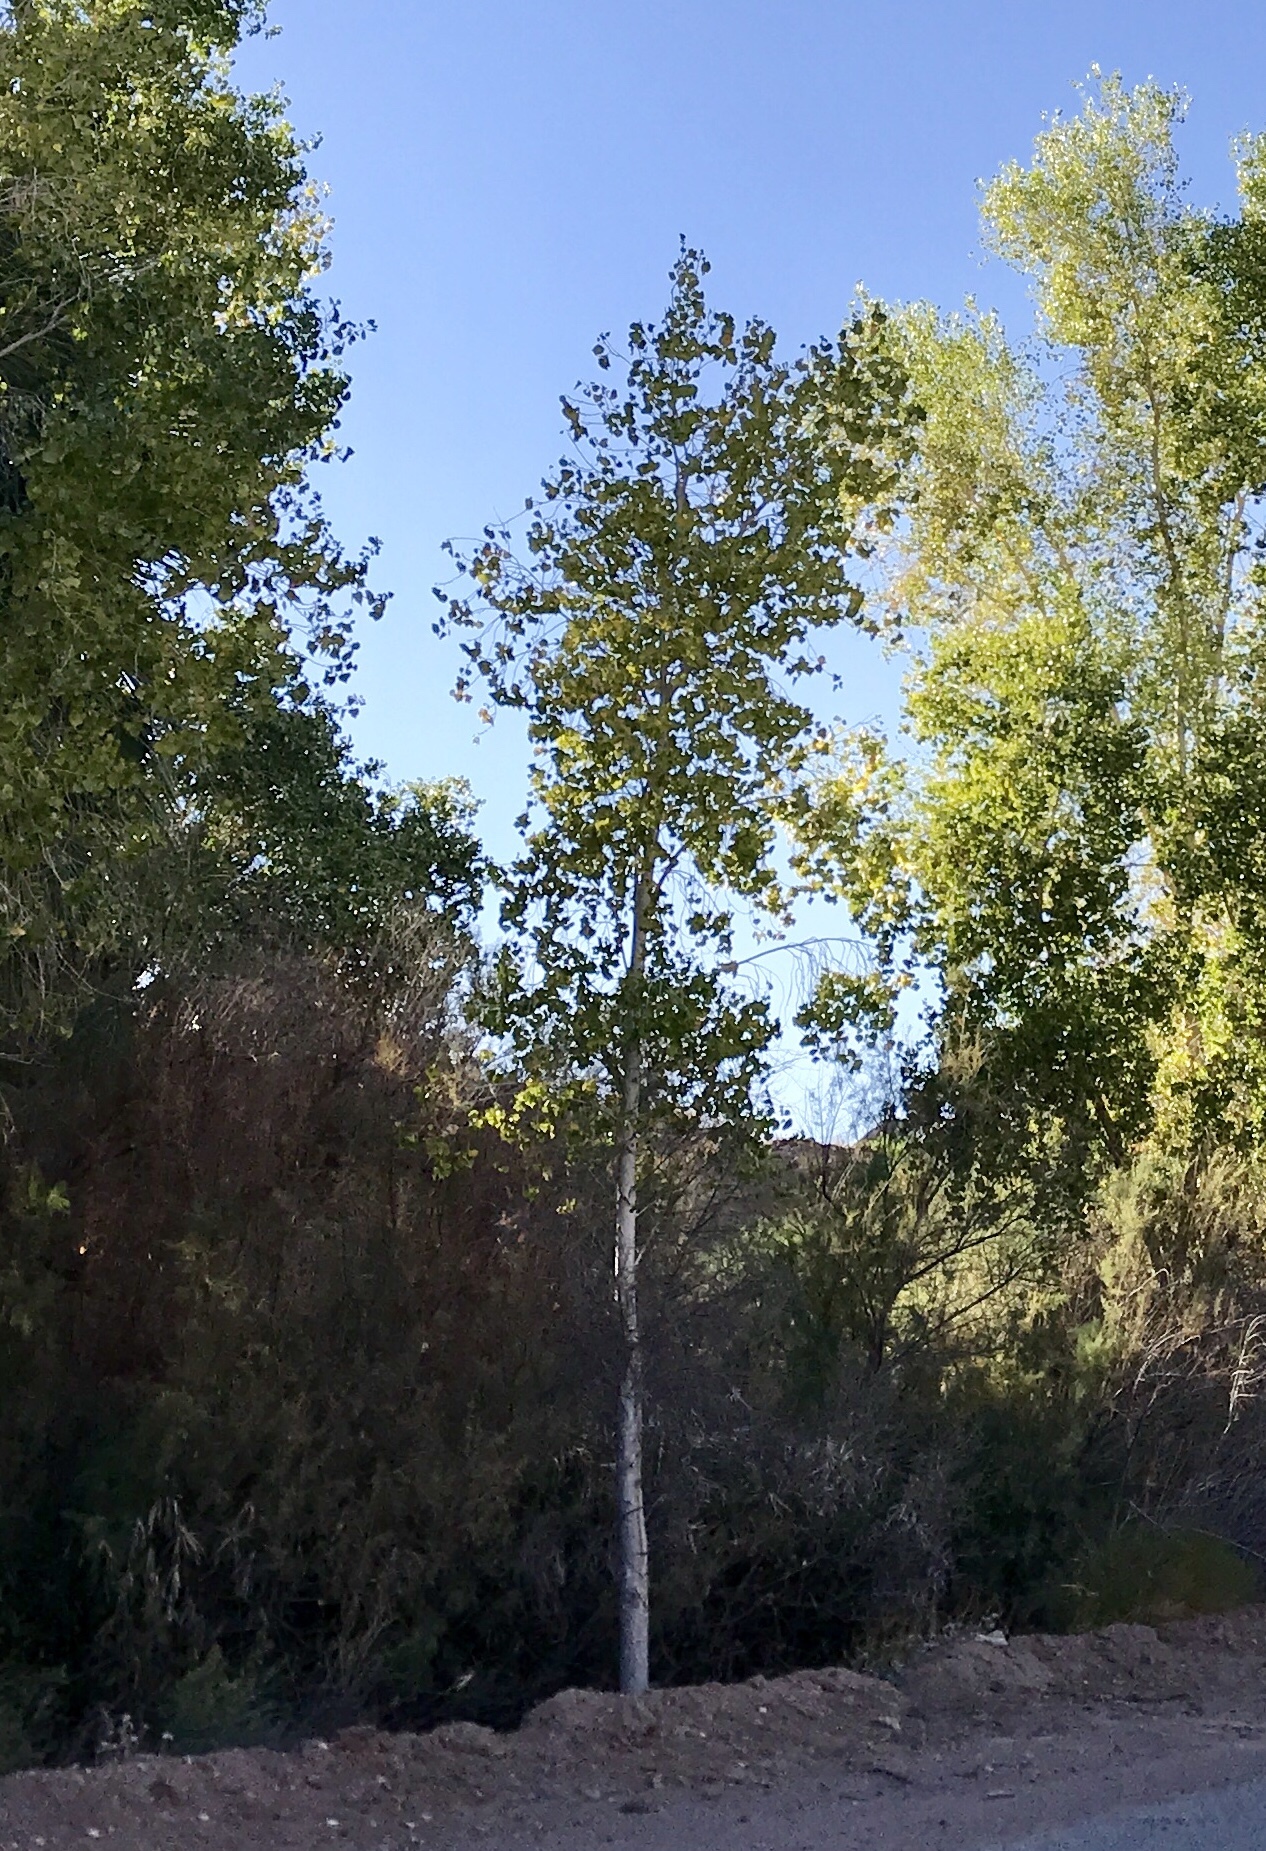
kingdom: Plantae
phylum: Tracheophyta
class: Magnoliopsida
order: Malpighiales
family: Salicaceae
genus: Populus
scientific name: Populus fremontii
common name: Fremont's cottonwood
